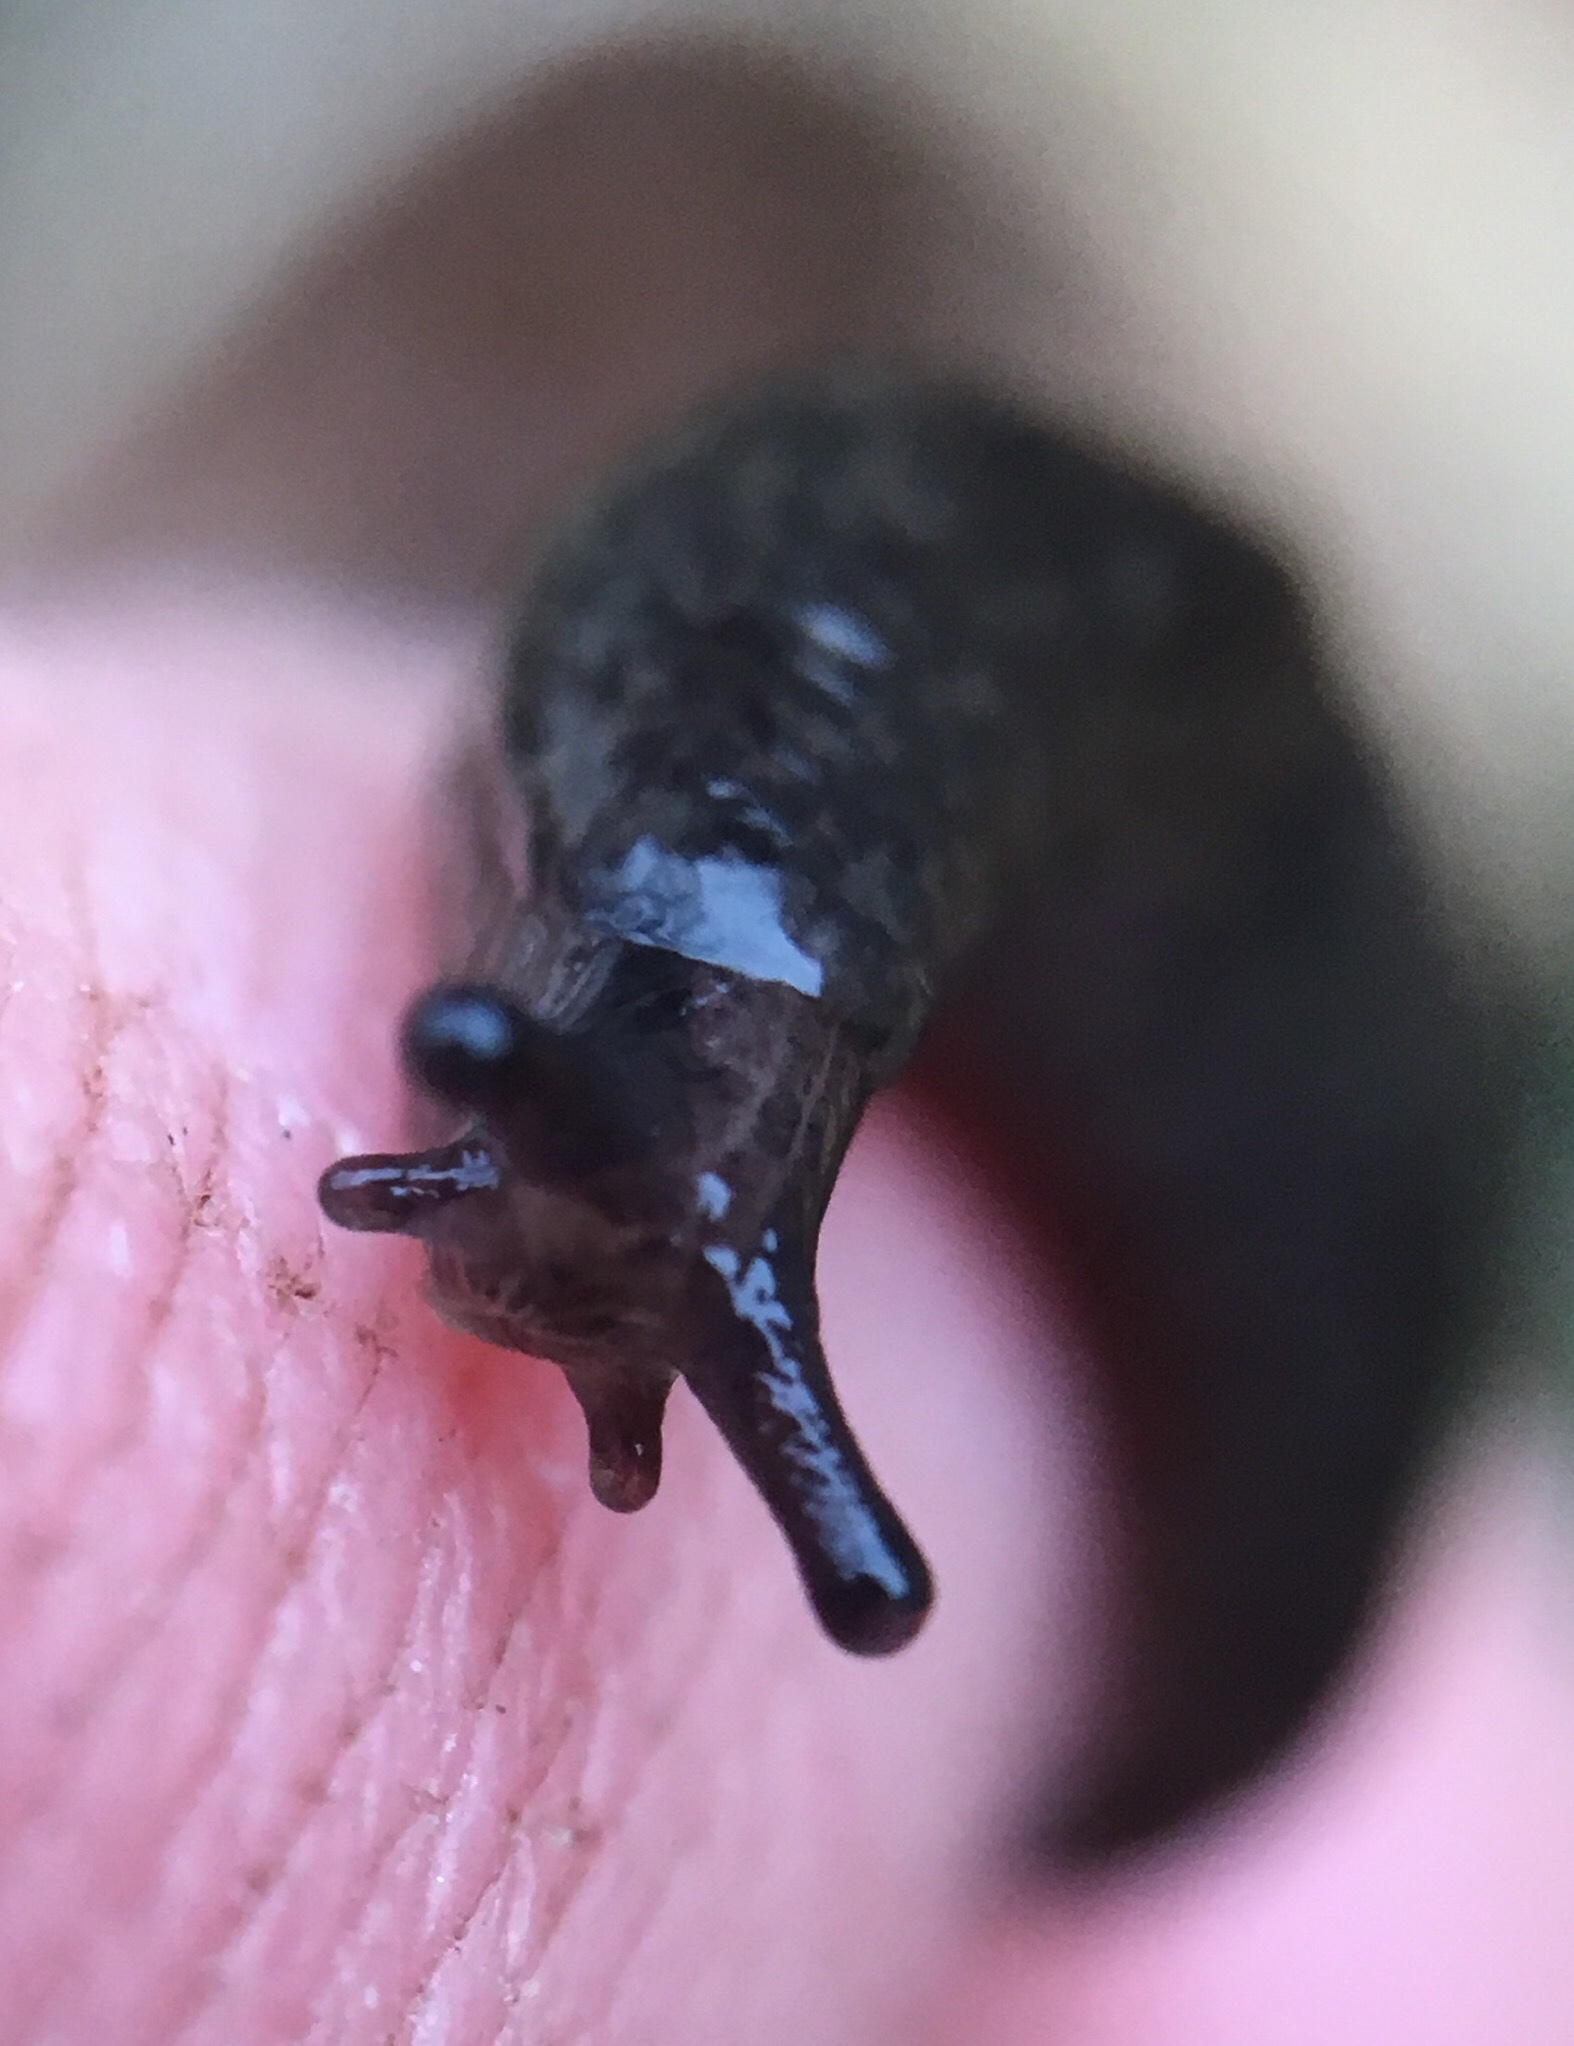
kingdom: Animalia
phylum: Mollusca
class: Gastropoda
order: Stylommatophora
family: Agriolimacidae
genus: Deroceras
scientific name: Deroceras laeve
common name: Marsh slug
